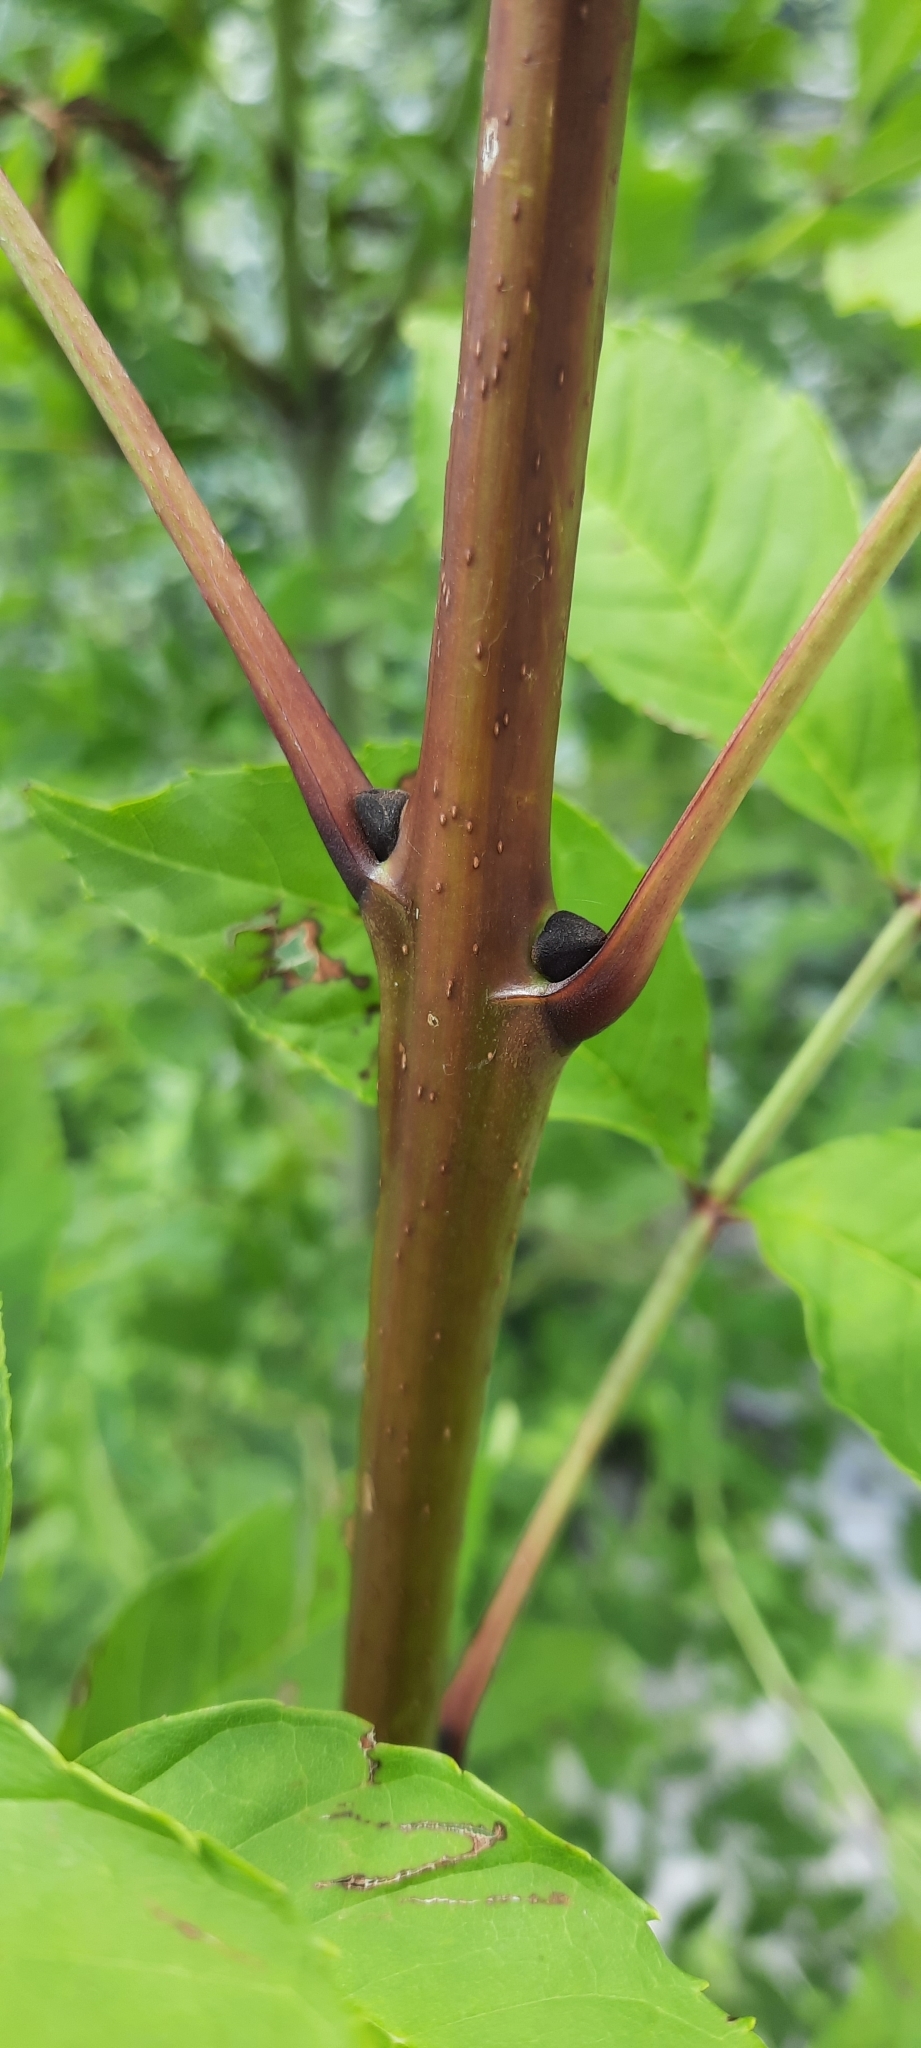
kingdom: Plantae
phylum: Tracheophyta
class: Magnoliopsida
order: Lamiales
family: Oleaceae
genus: Fraxinus
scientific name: Fraxinus excelsior
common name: European ash
